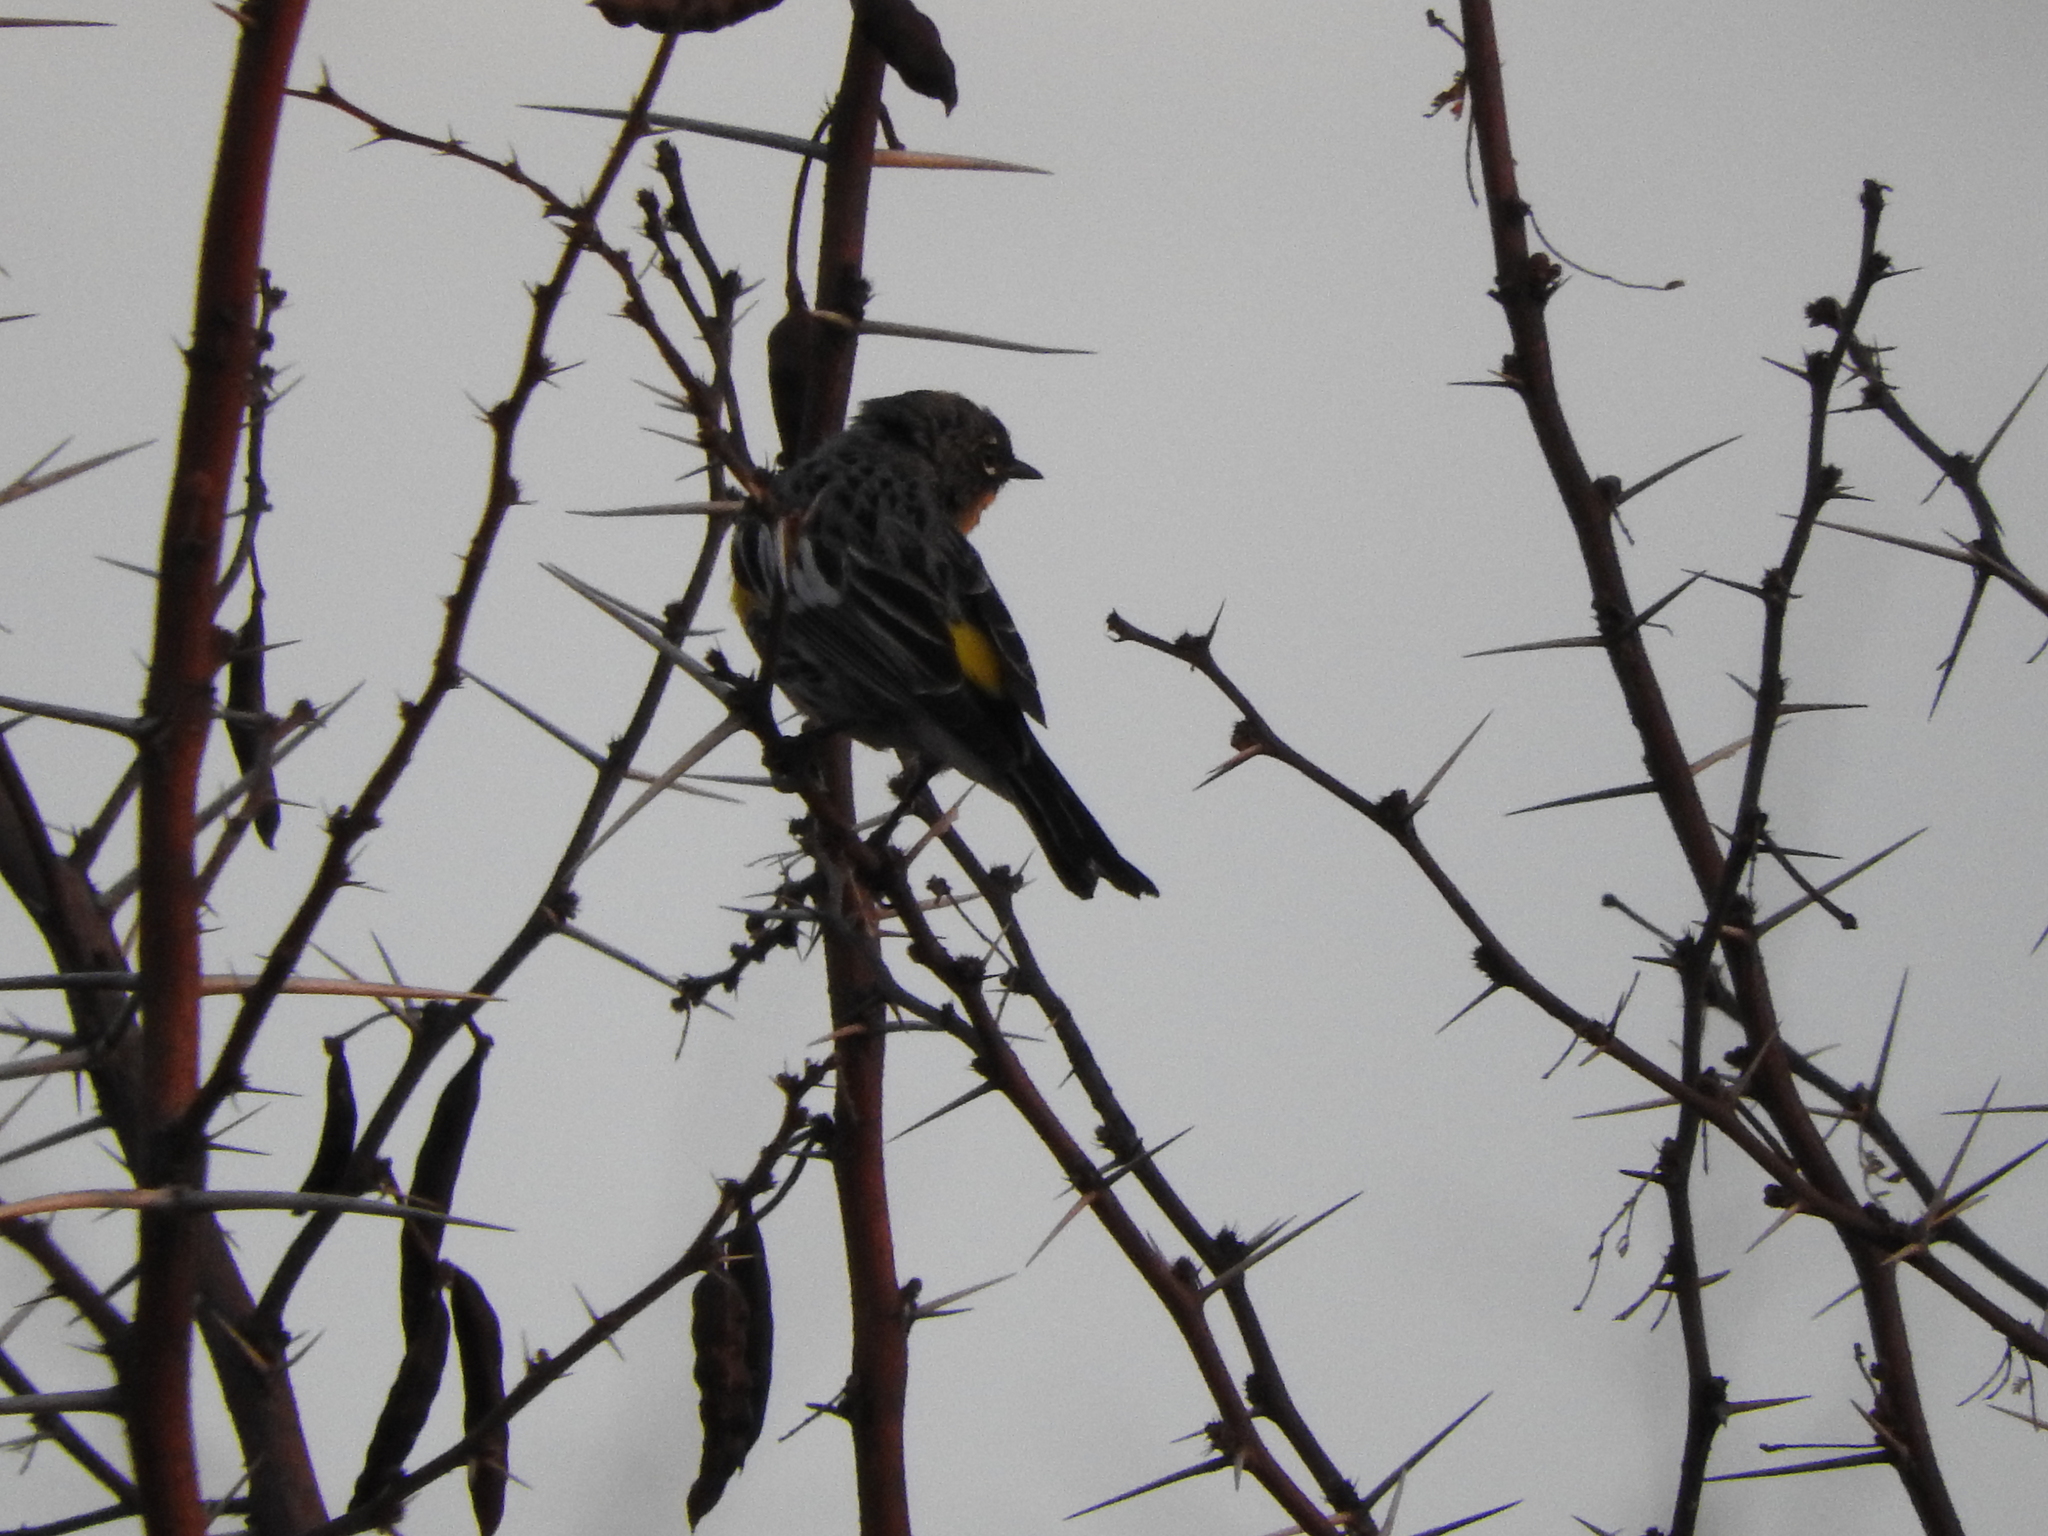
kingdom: Animalia
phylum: Chordata
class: Aves
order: Passeriformes
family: Parulidae
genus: Setophaga
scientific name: Setophaga coronata
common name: Myrtle warbler
